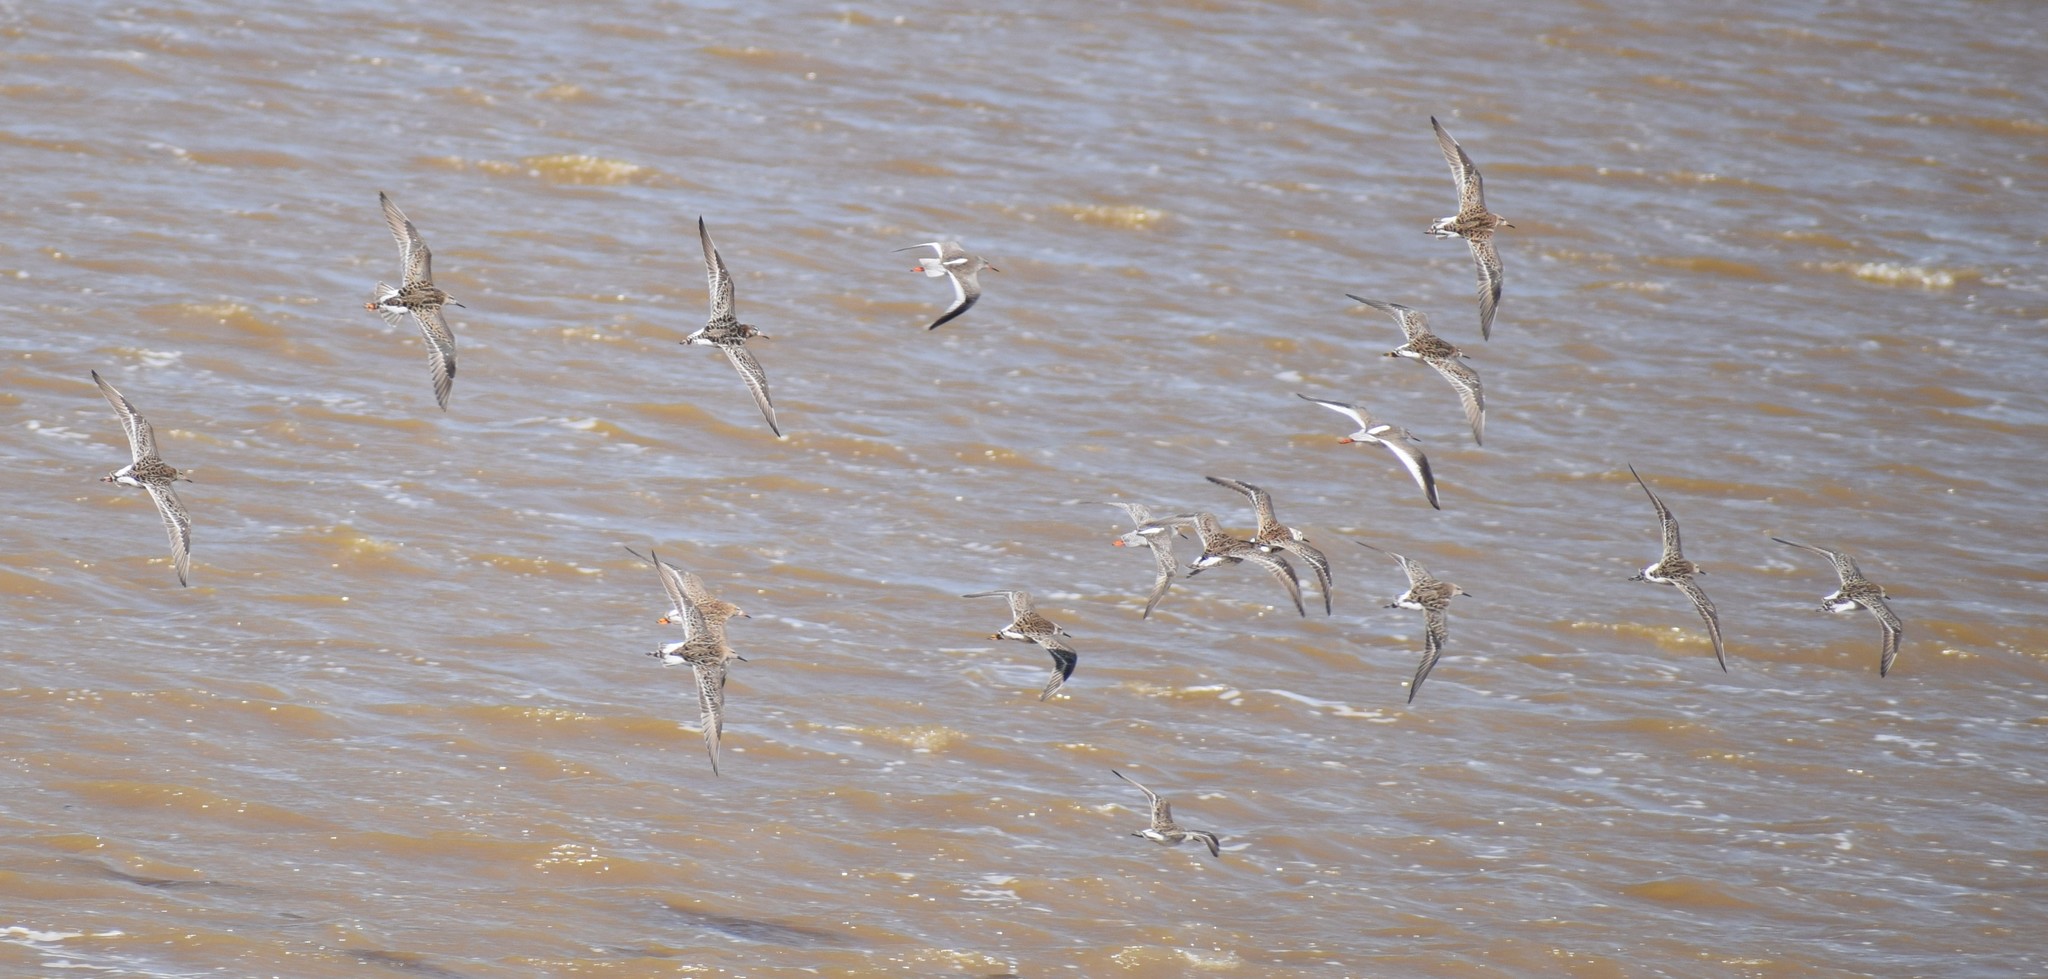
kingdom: Animalia
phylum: Chordata
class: Aves
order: Charadriiformes
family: Scolopacidae
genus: Calidris
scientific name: Calidris pugnax
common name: Ruff
